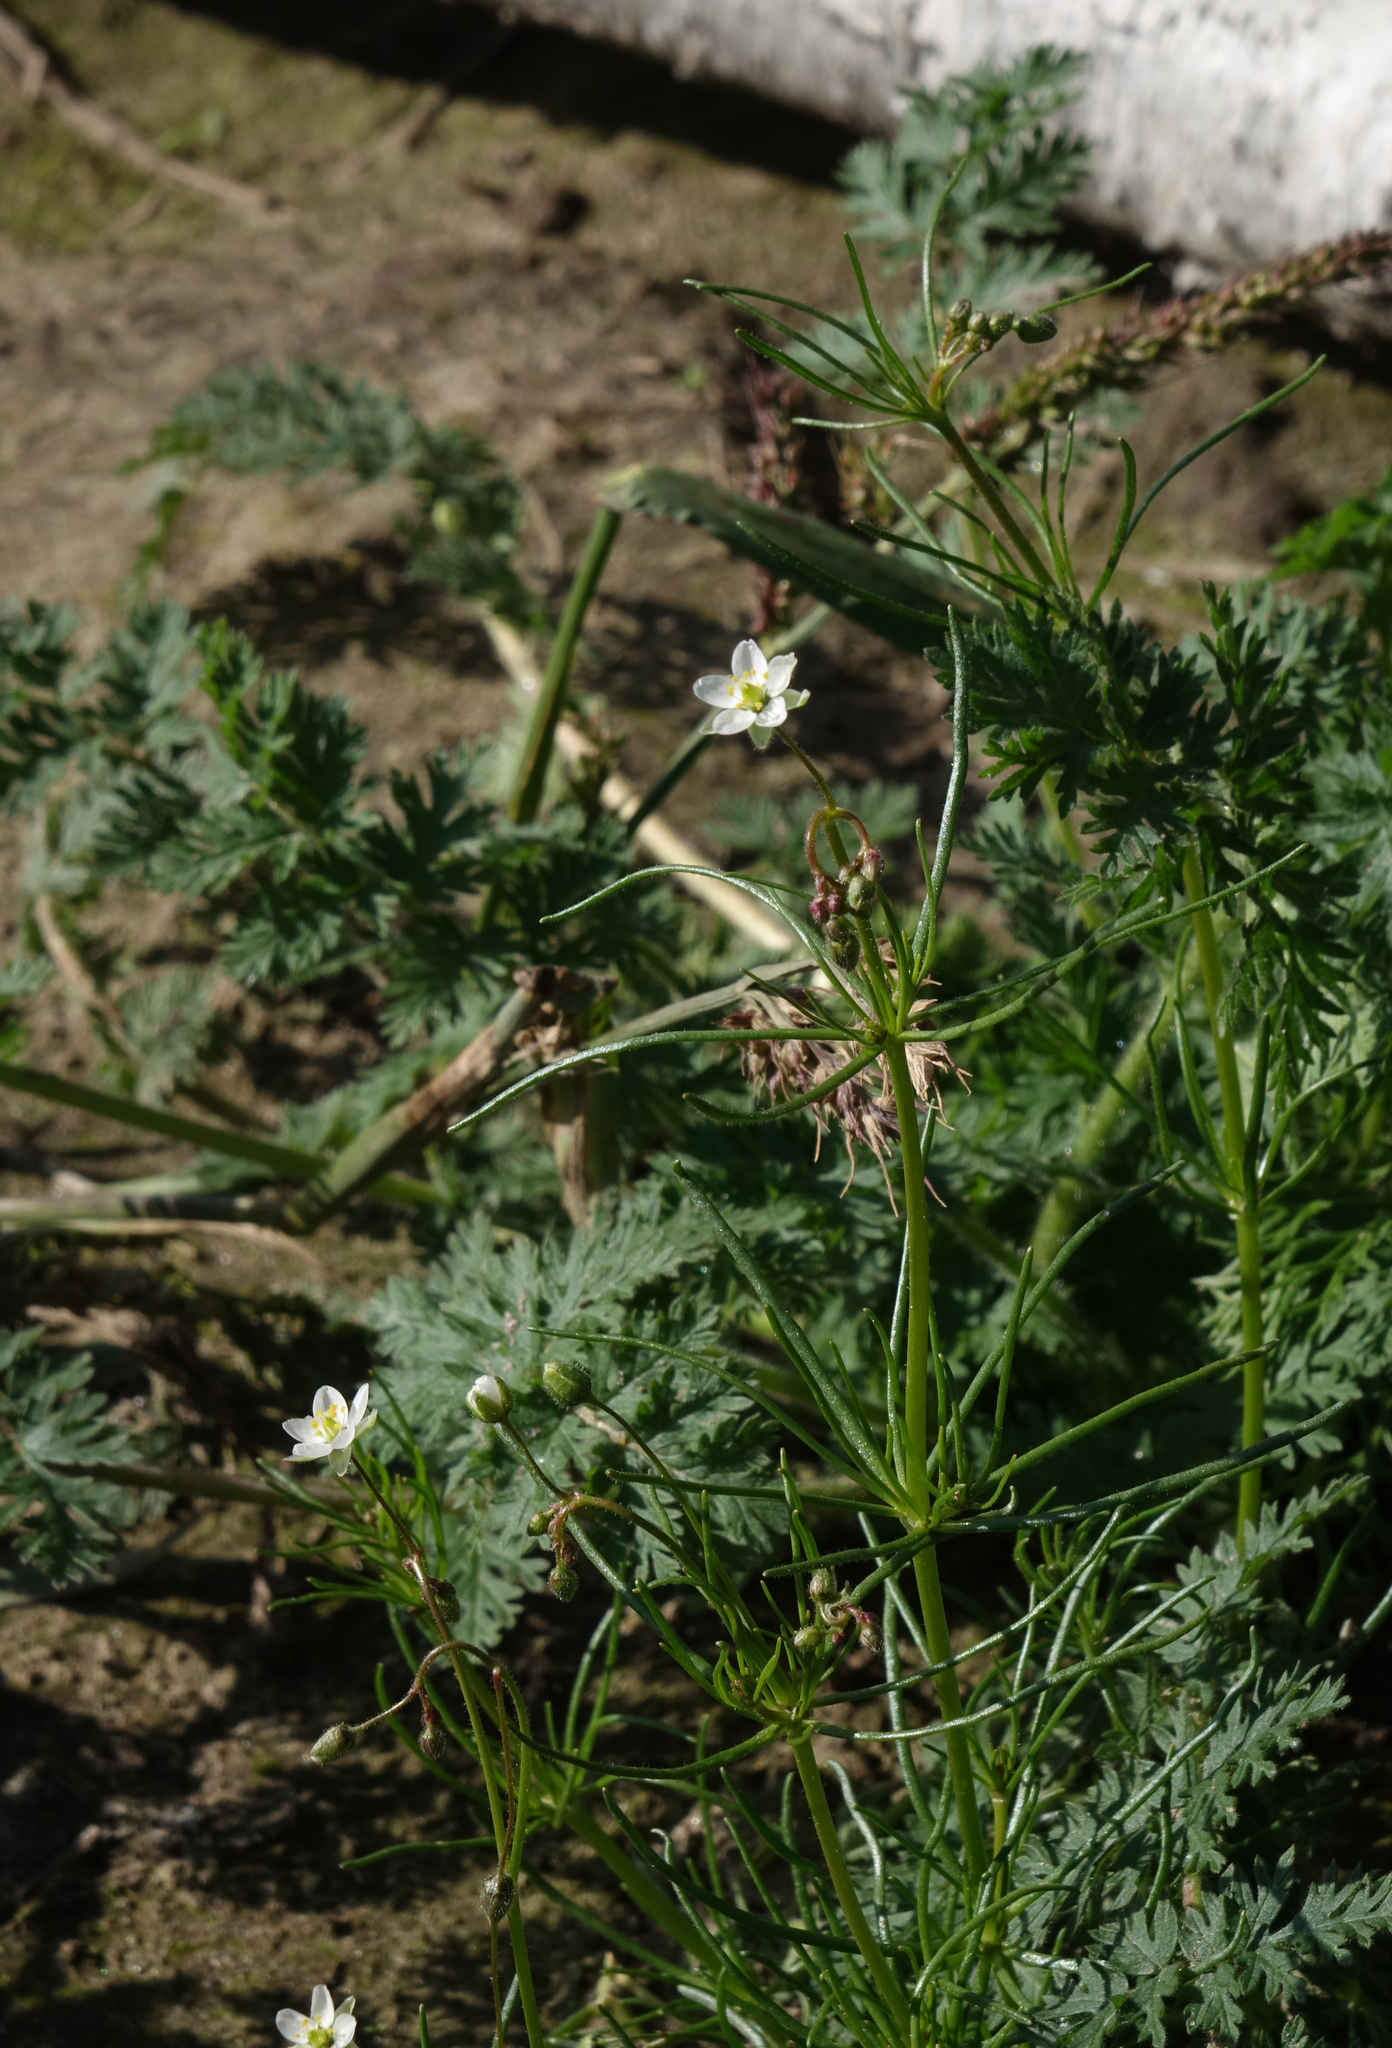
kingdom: Plantae
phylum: Tracheophyta
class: Magnoliopsida
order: Caryophyllales
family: Caryophyllaceae
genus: Spergula
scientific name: Spergula arvensis
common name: Corn spurrey
